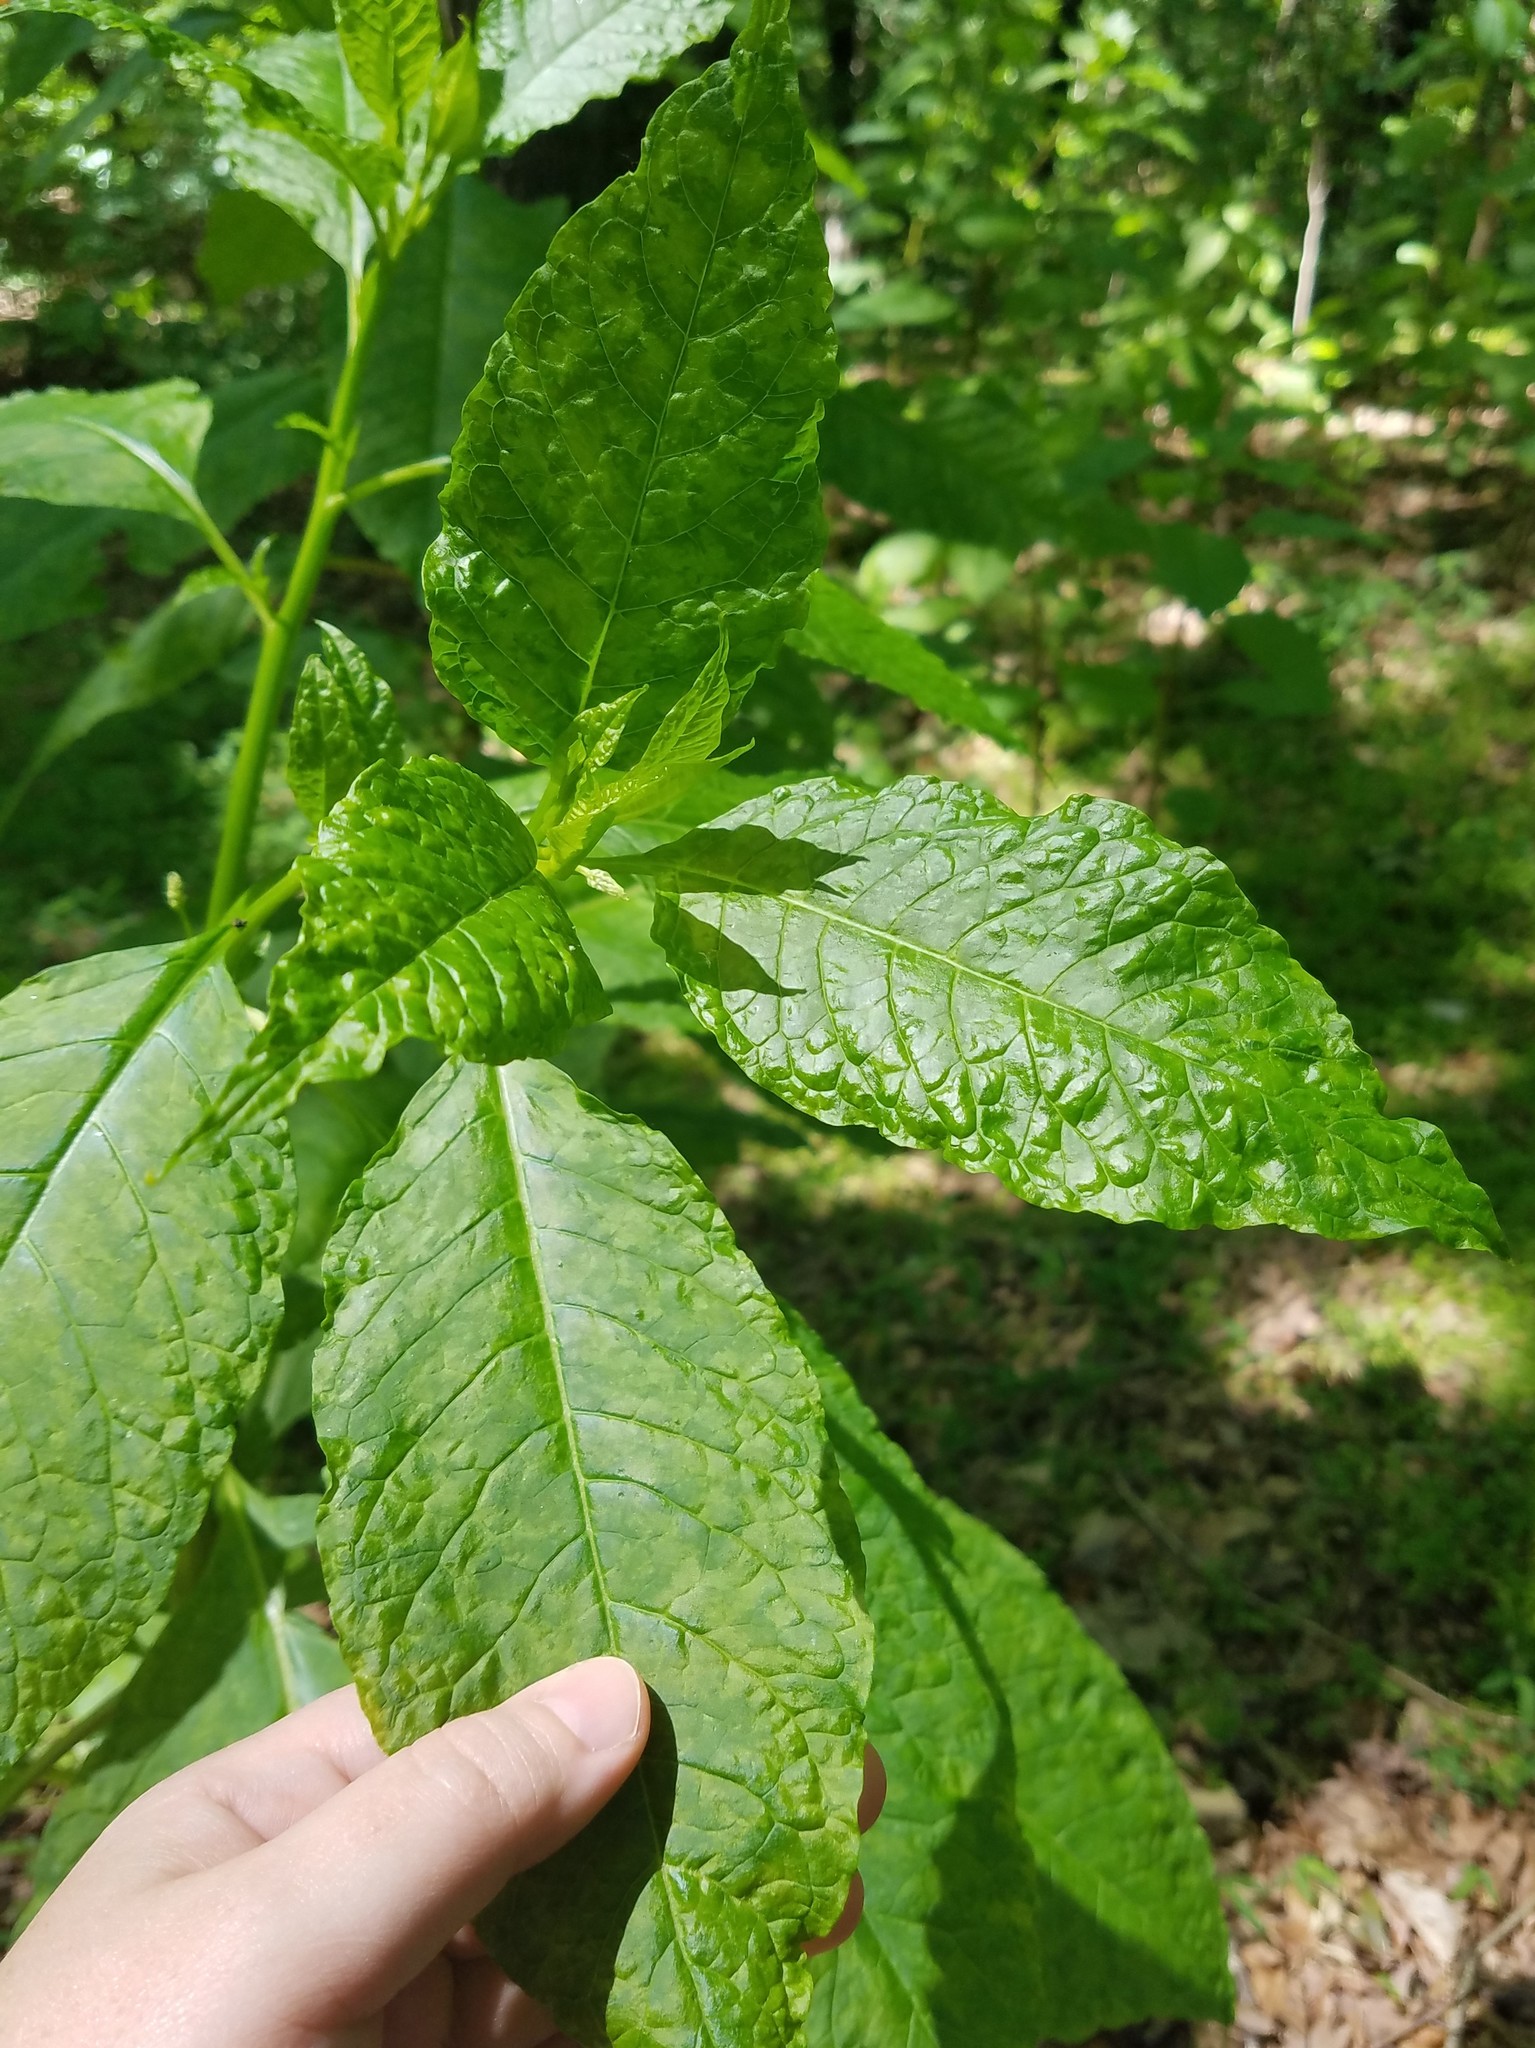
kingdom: Plantae
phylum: Tracheophyta
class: Magnoliopsida
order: Caryophyllales
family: Phytolaccaceae
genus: Phytolacca
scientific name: Phytolacca americana
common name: American pokeweed
